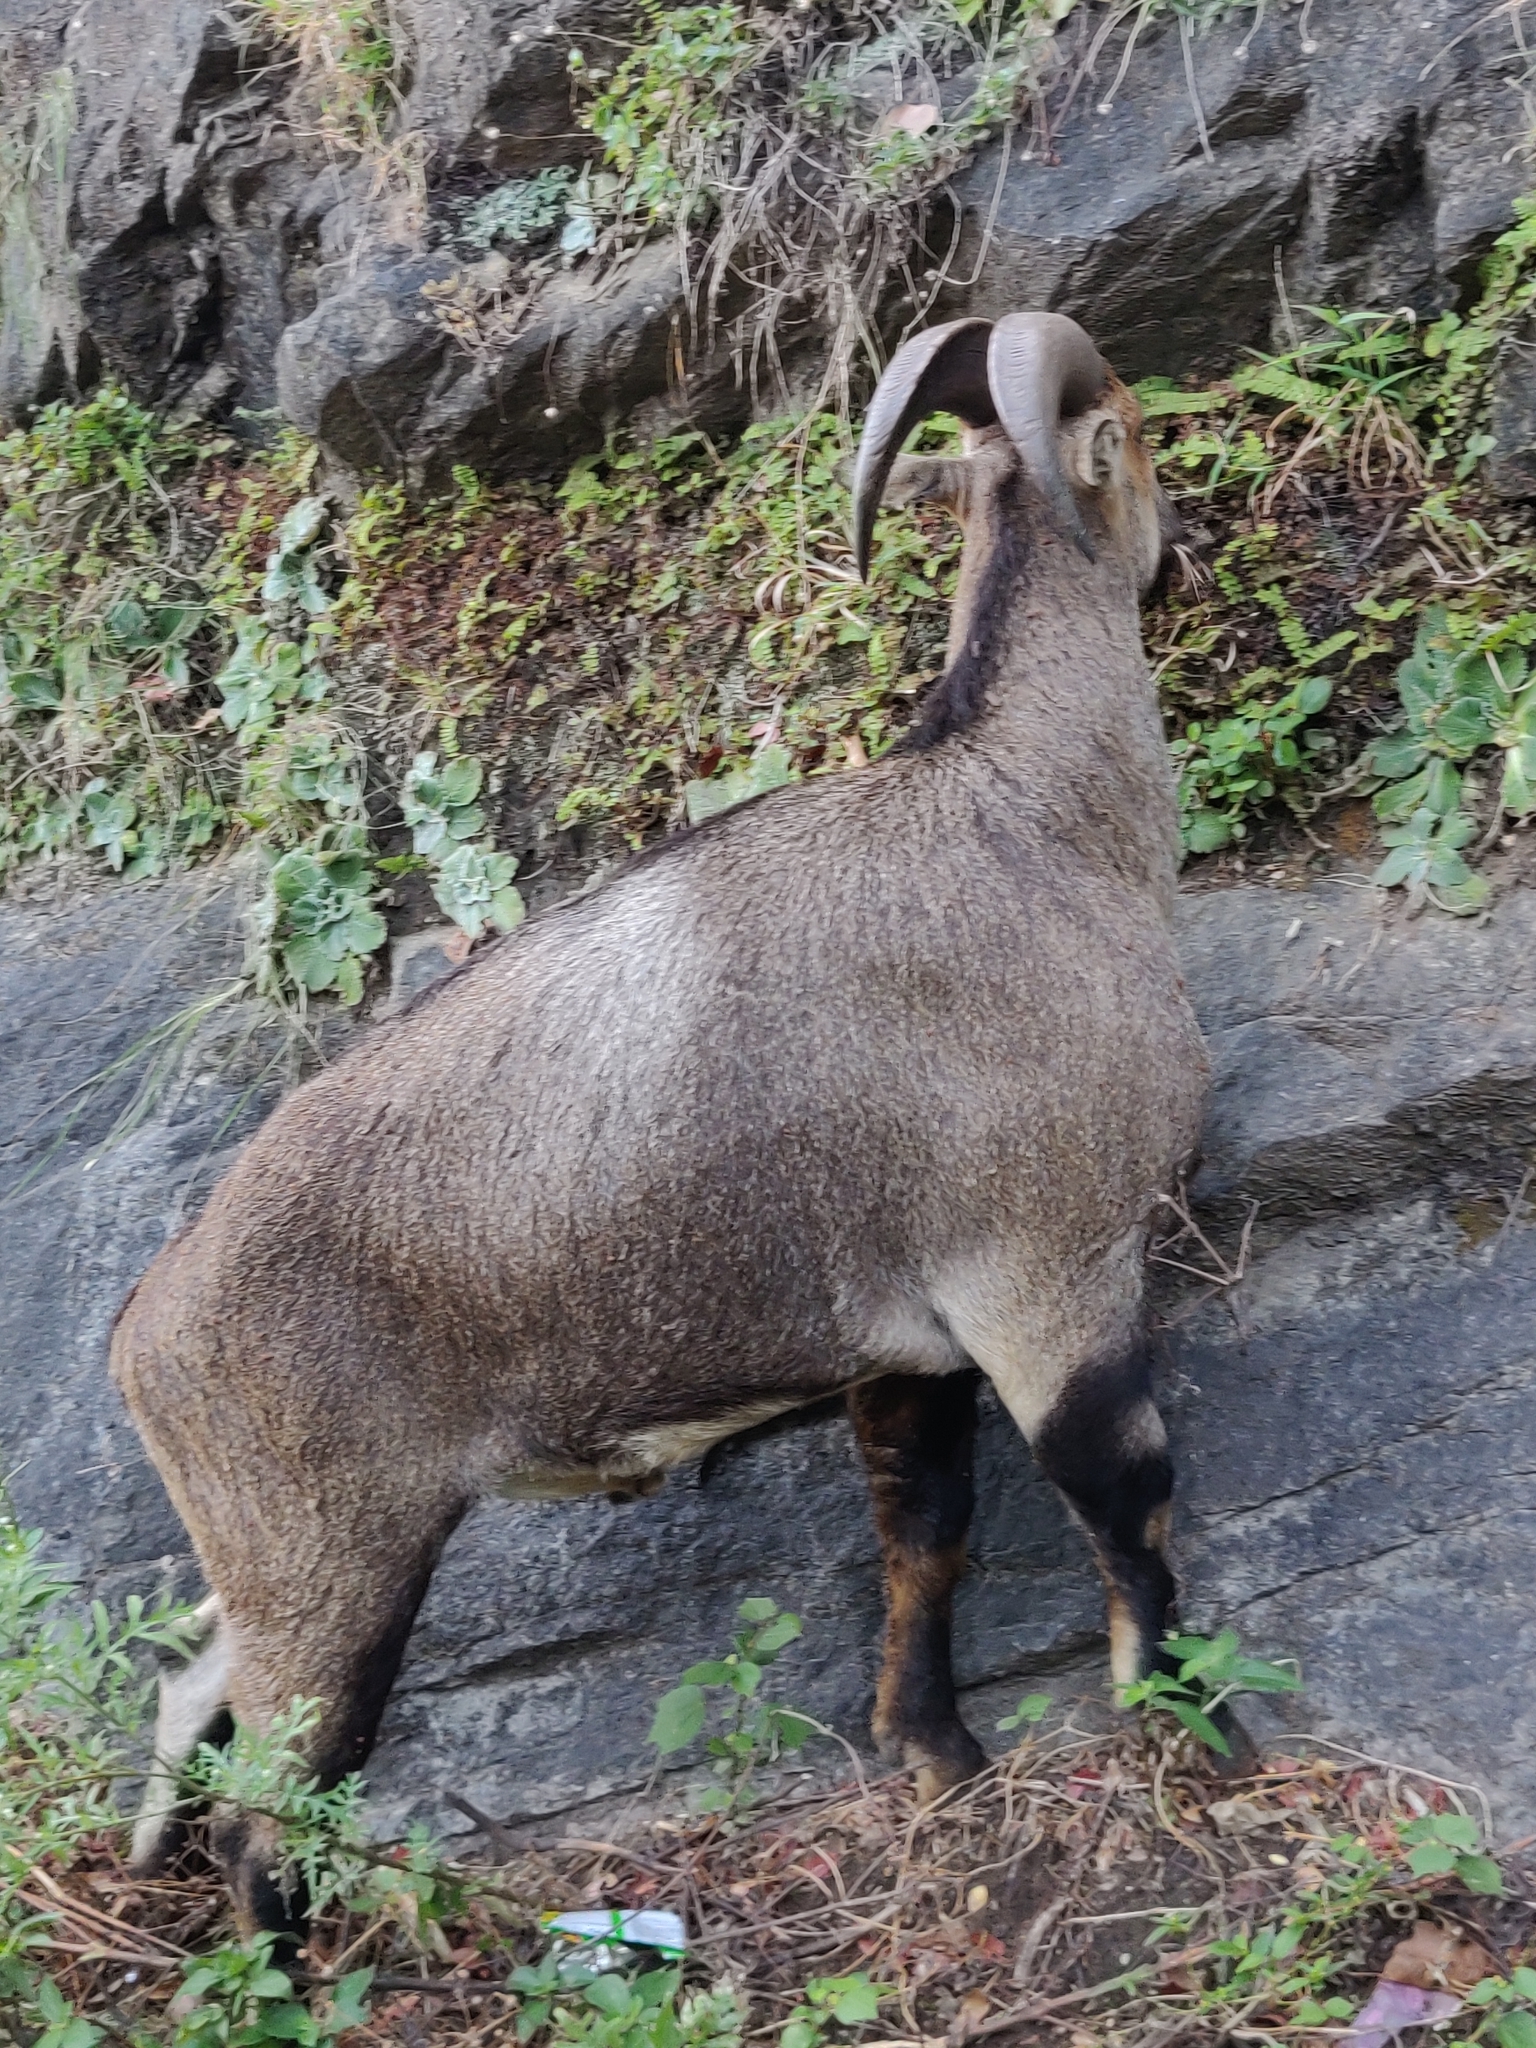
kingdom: Animalia
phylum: Chordata
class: Mammalia
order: Artiodactyla
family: Bovidae
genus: Hemitragus
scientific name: Hemitragus hylocrius
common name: Nilgiri tahr
